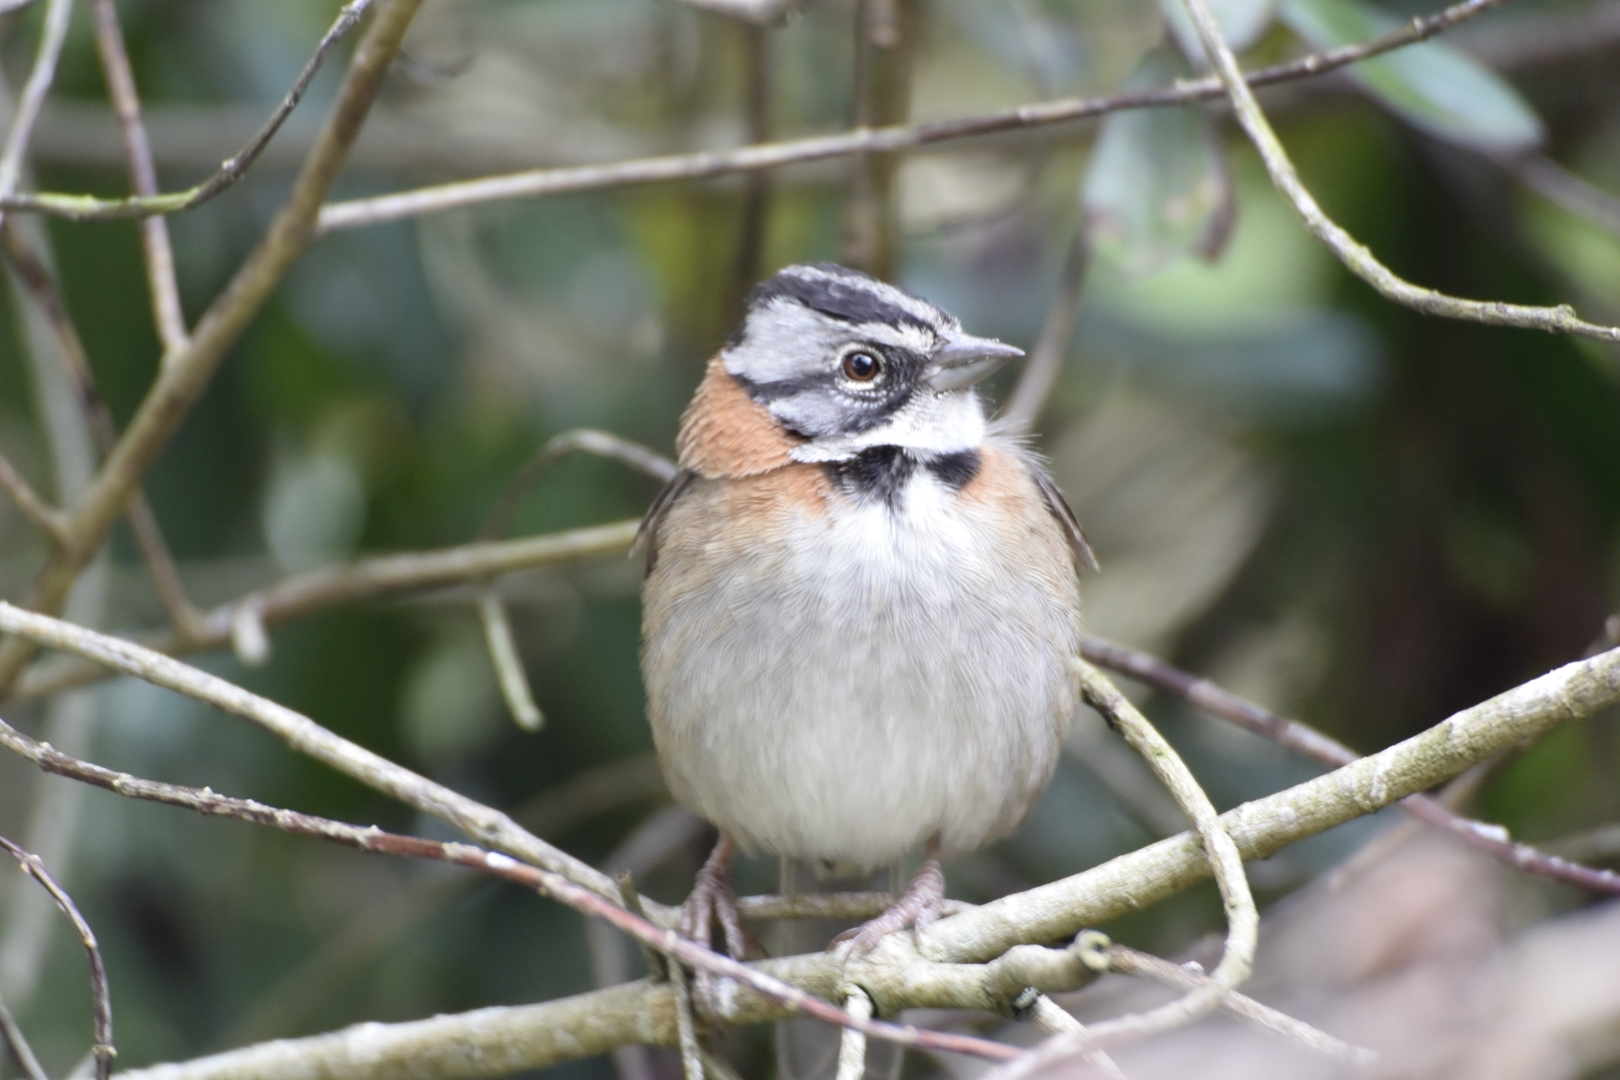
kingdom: Animalia
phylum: Chordata
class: Aves
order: Passeriformes
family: Passerellidae
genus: Zonotrichia
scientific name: Zonotrichia capensis
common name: Rufous-collared sparrow
